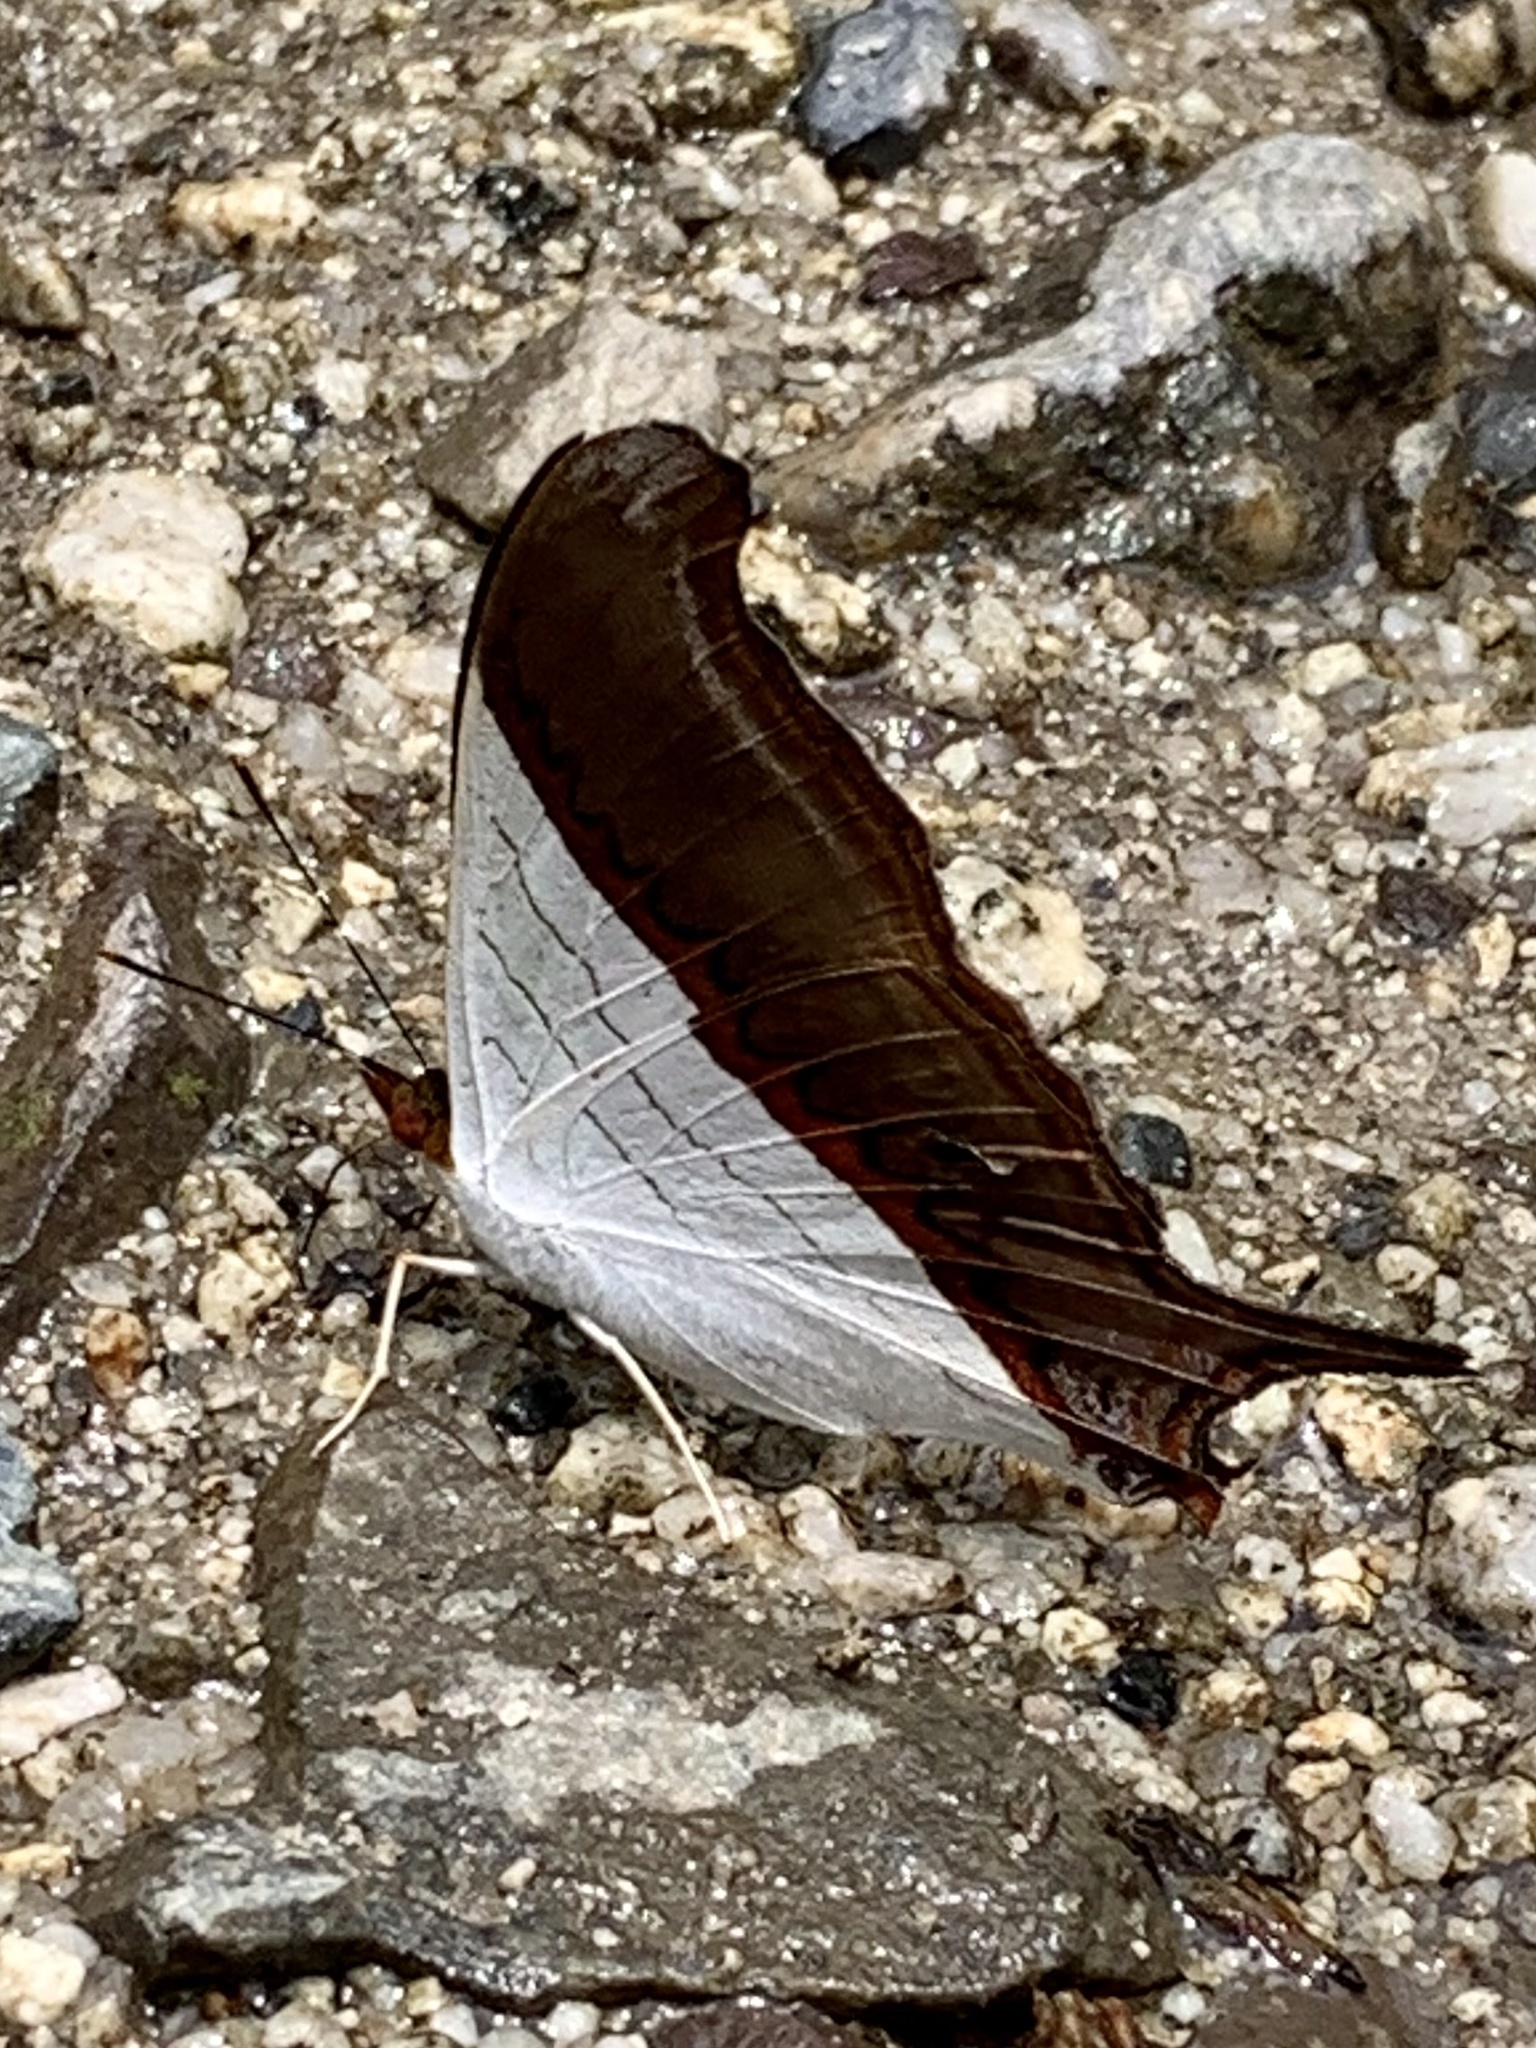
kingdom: Animalia
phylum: Arthropoda
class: Insecta
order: Lepidoptera
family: Nymphalidae
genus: Marpesia
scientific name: Marpesia zerynthia
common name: Waiter daggerwing
